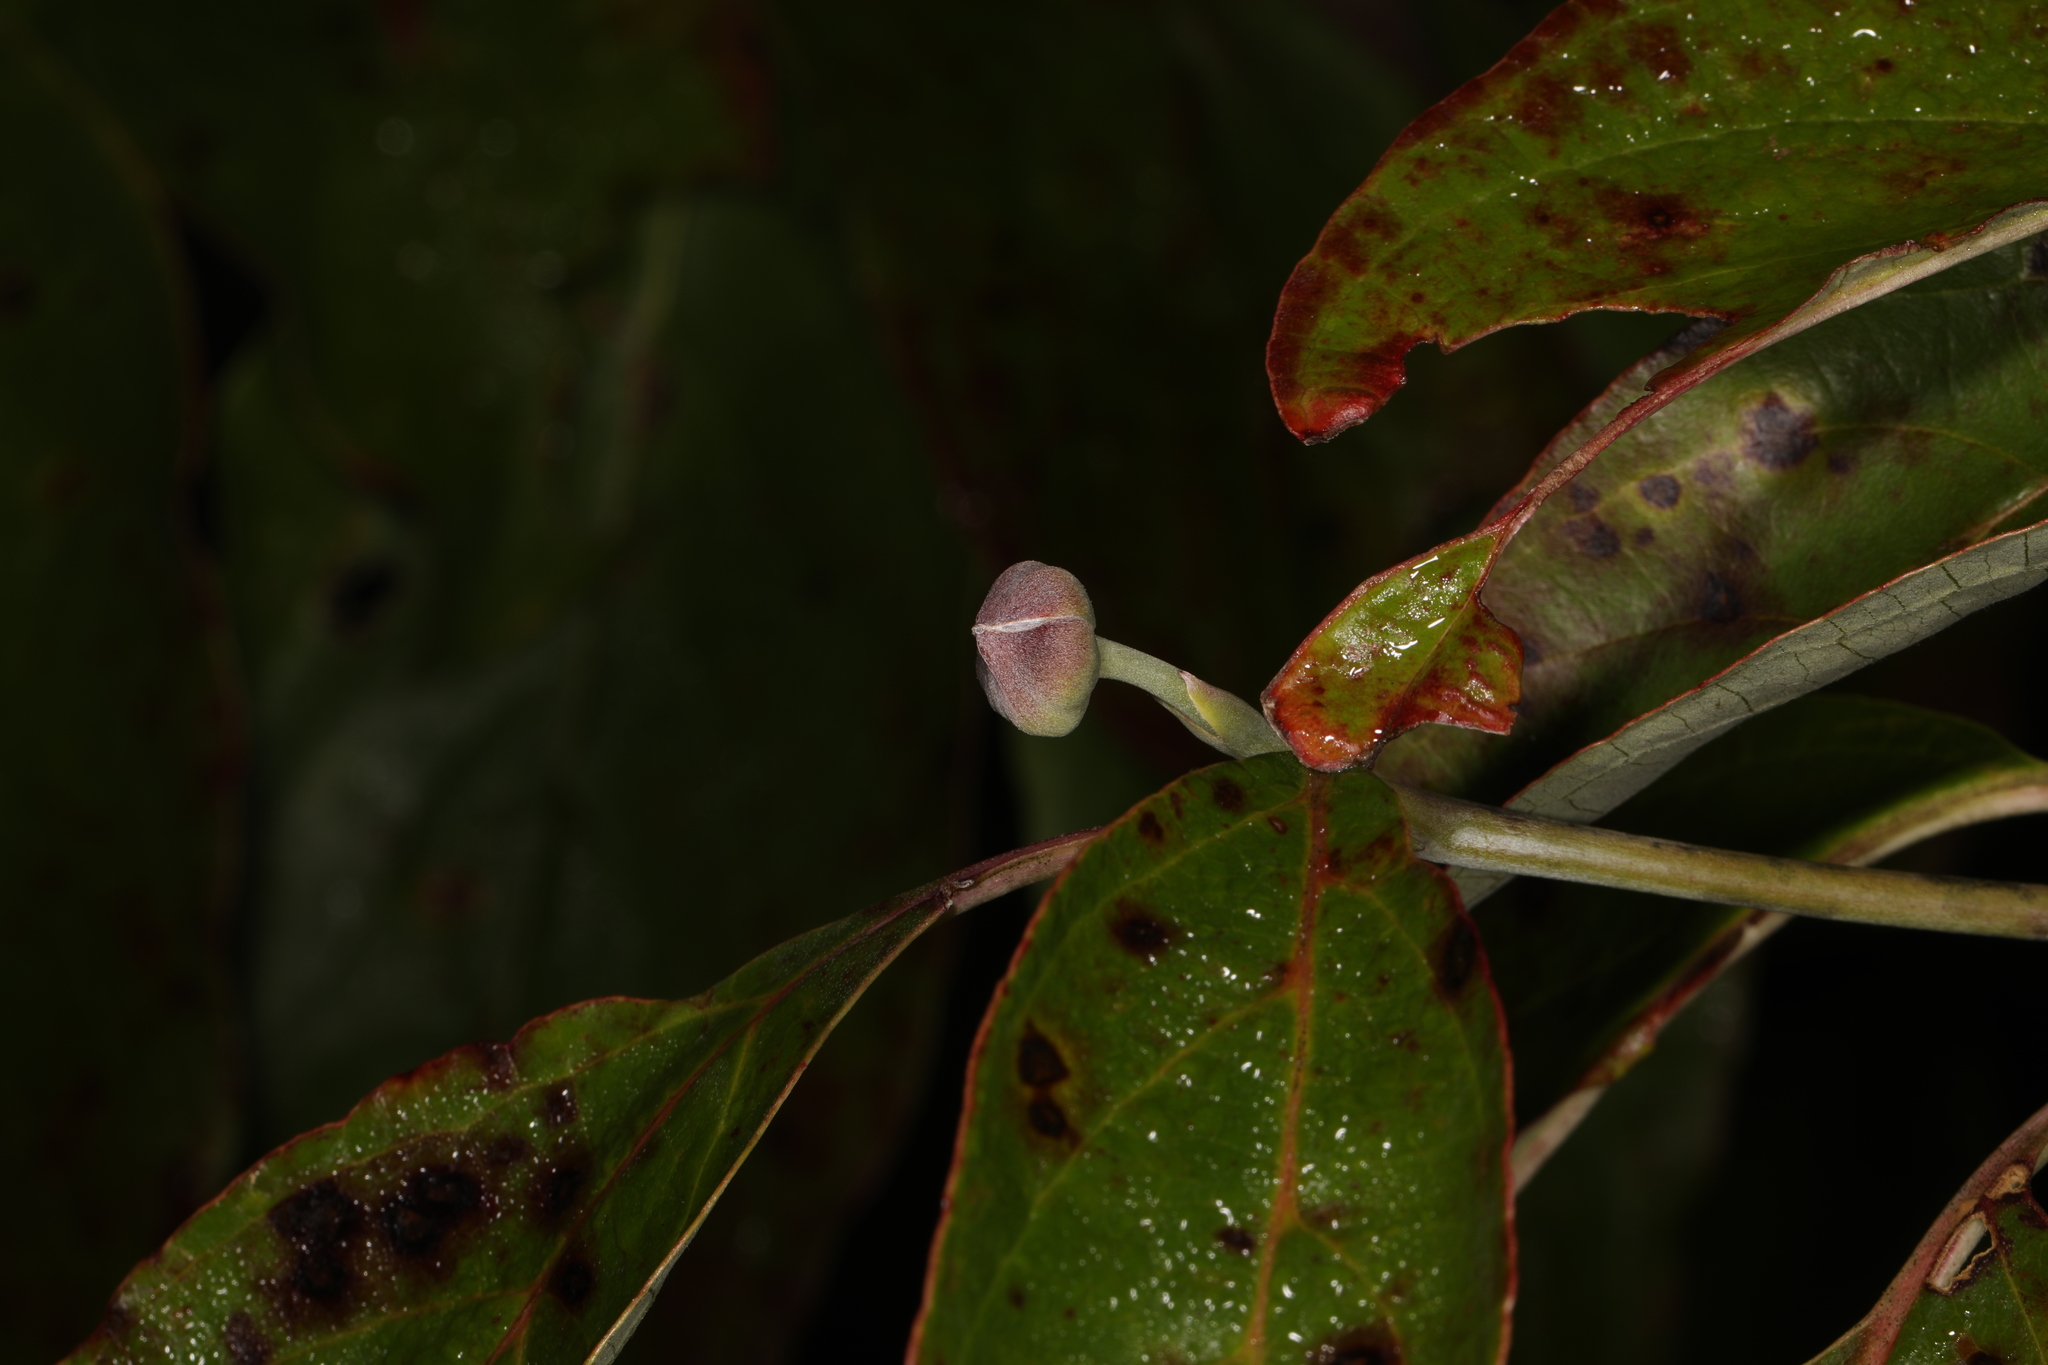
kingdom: Plantae
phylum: Tracheophyta
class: Magnoliopsida
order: Cornales
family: Cornaceae
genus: Cornus
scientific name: Cornus florida
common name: Flowering dogwood
